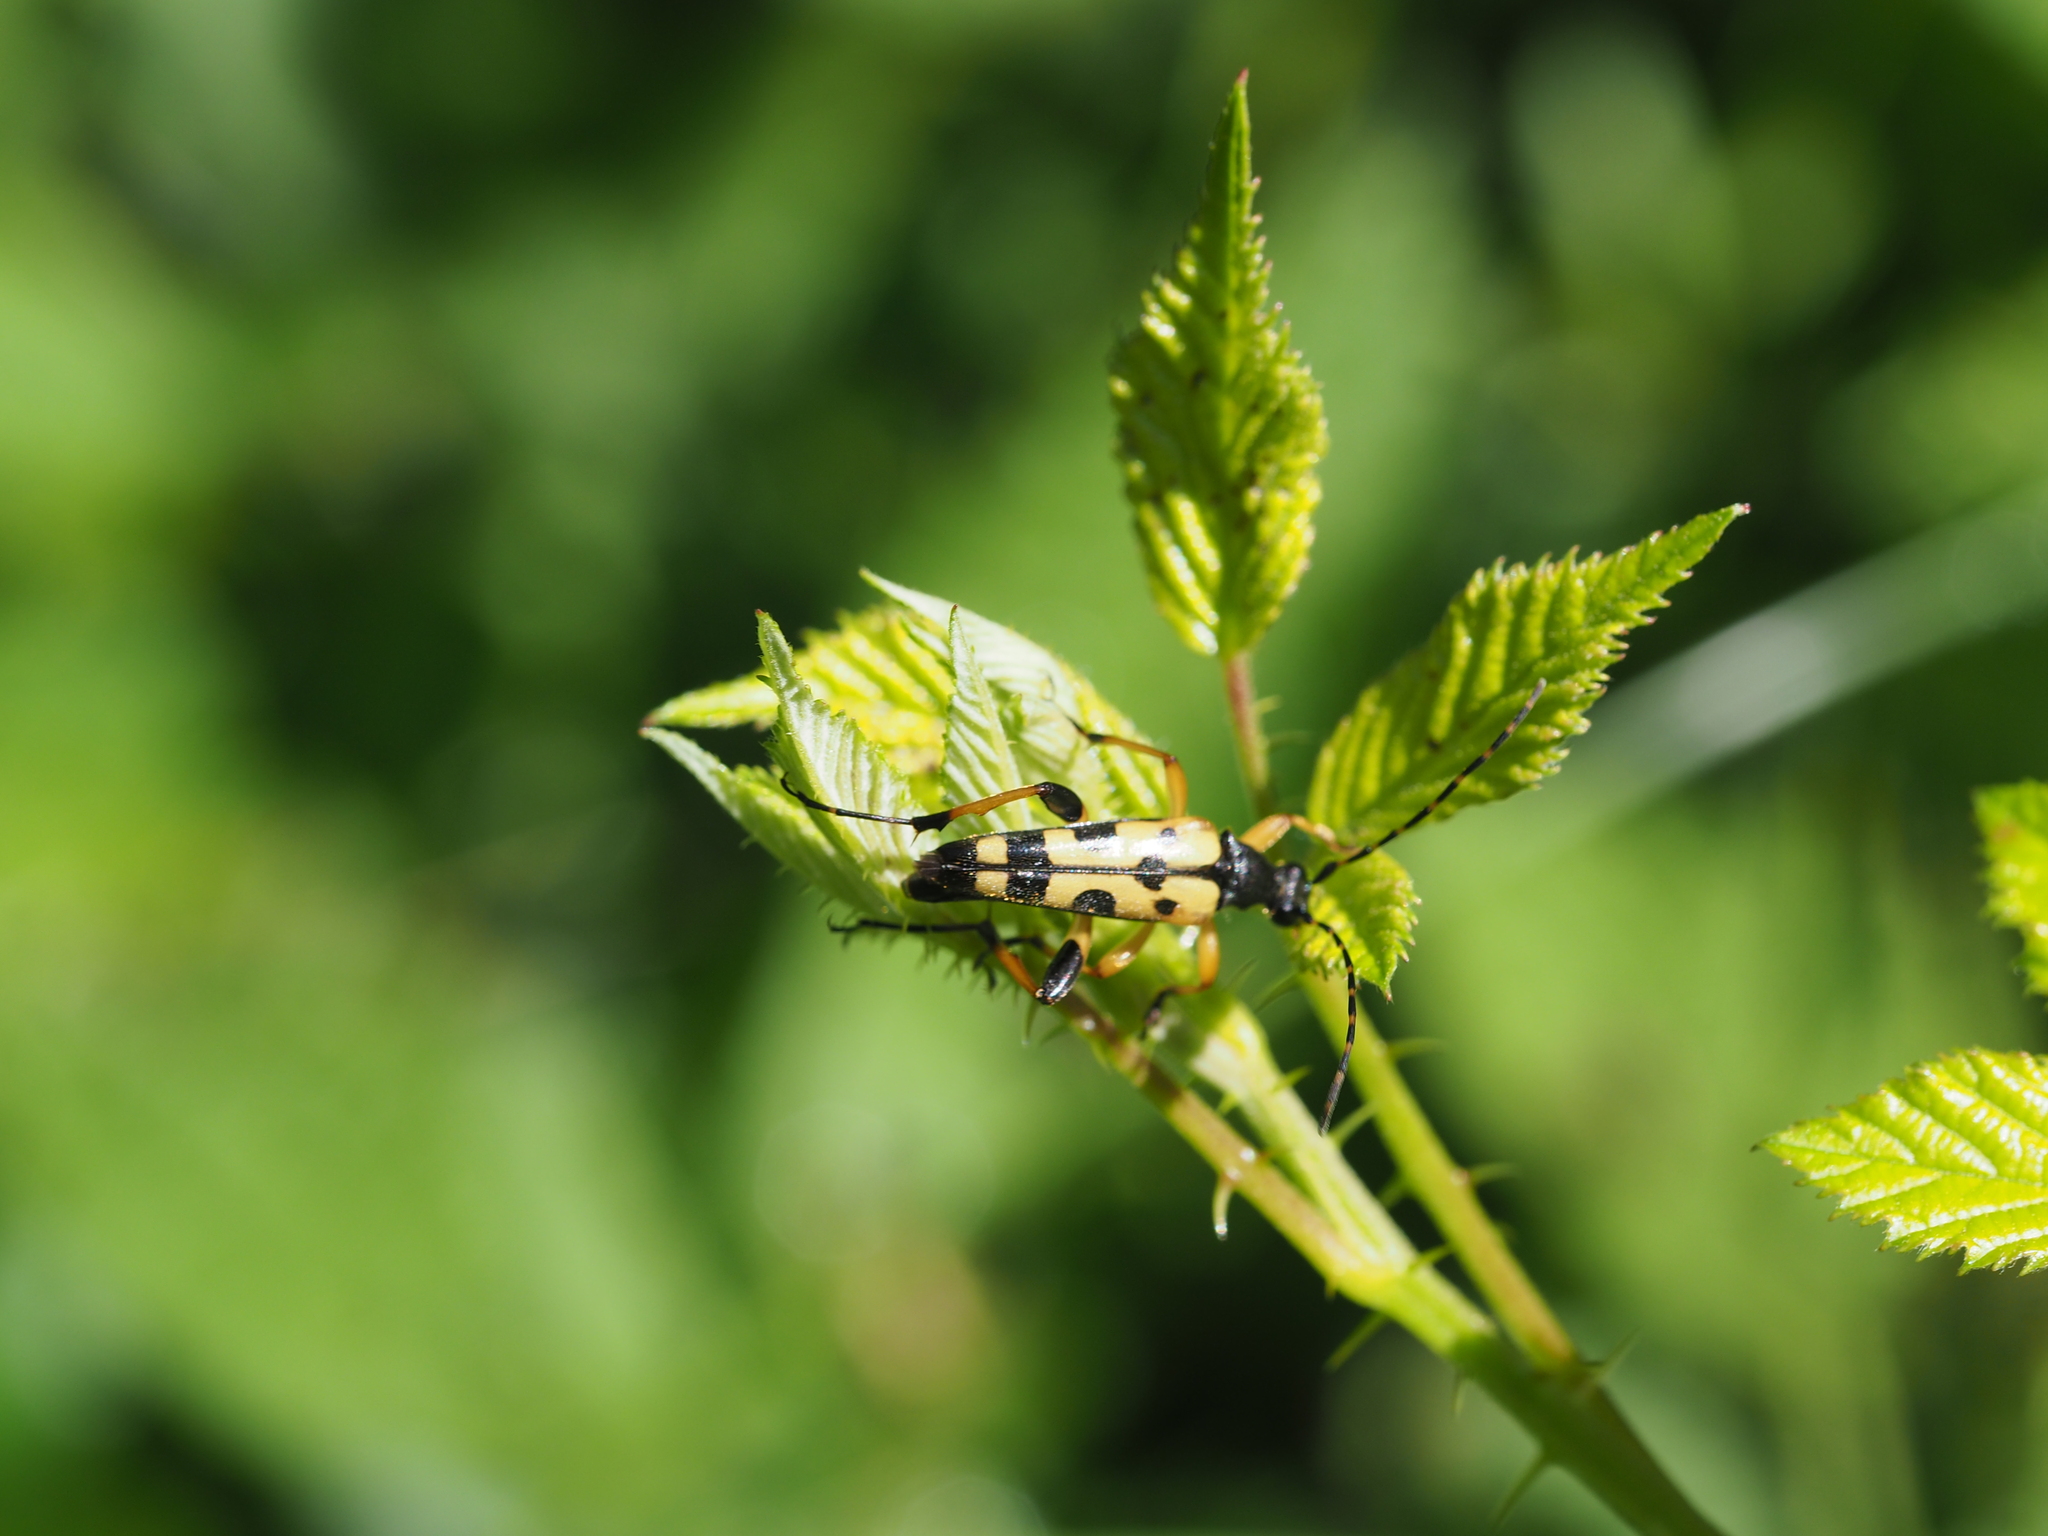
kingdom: Animalia
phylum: Arthropoda
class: Insecta
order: Coleoptera
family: Cerambycidae
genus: Rutpela
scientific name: Rutpela maculata
